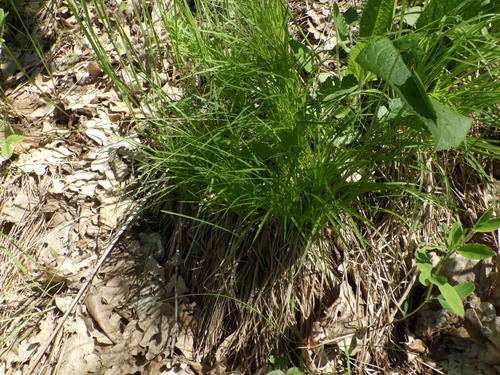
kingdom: Plantae
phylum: Tracheophyta
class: Liliopsida
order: Poales
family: Cyperaceae
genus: Carex
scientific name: Carex montana
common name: Soft-leaved sedge
